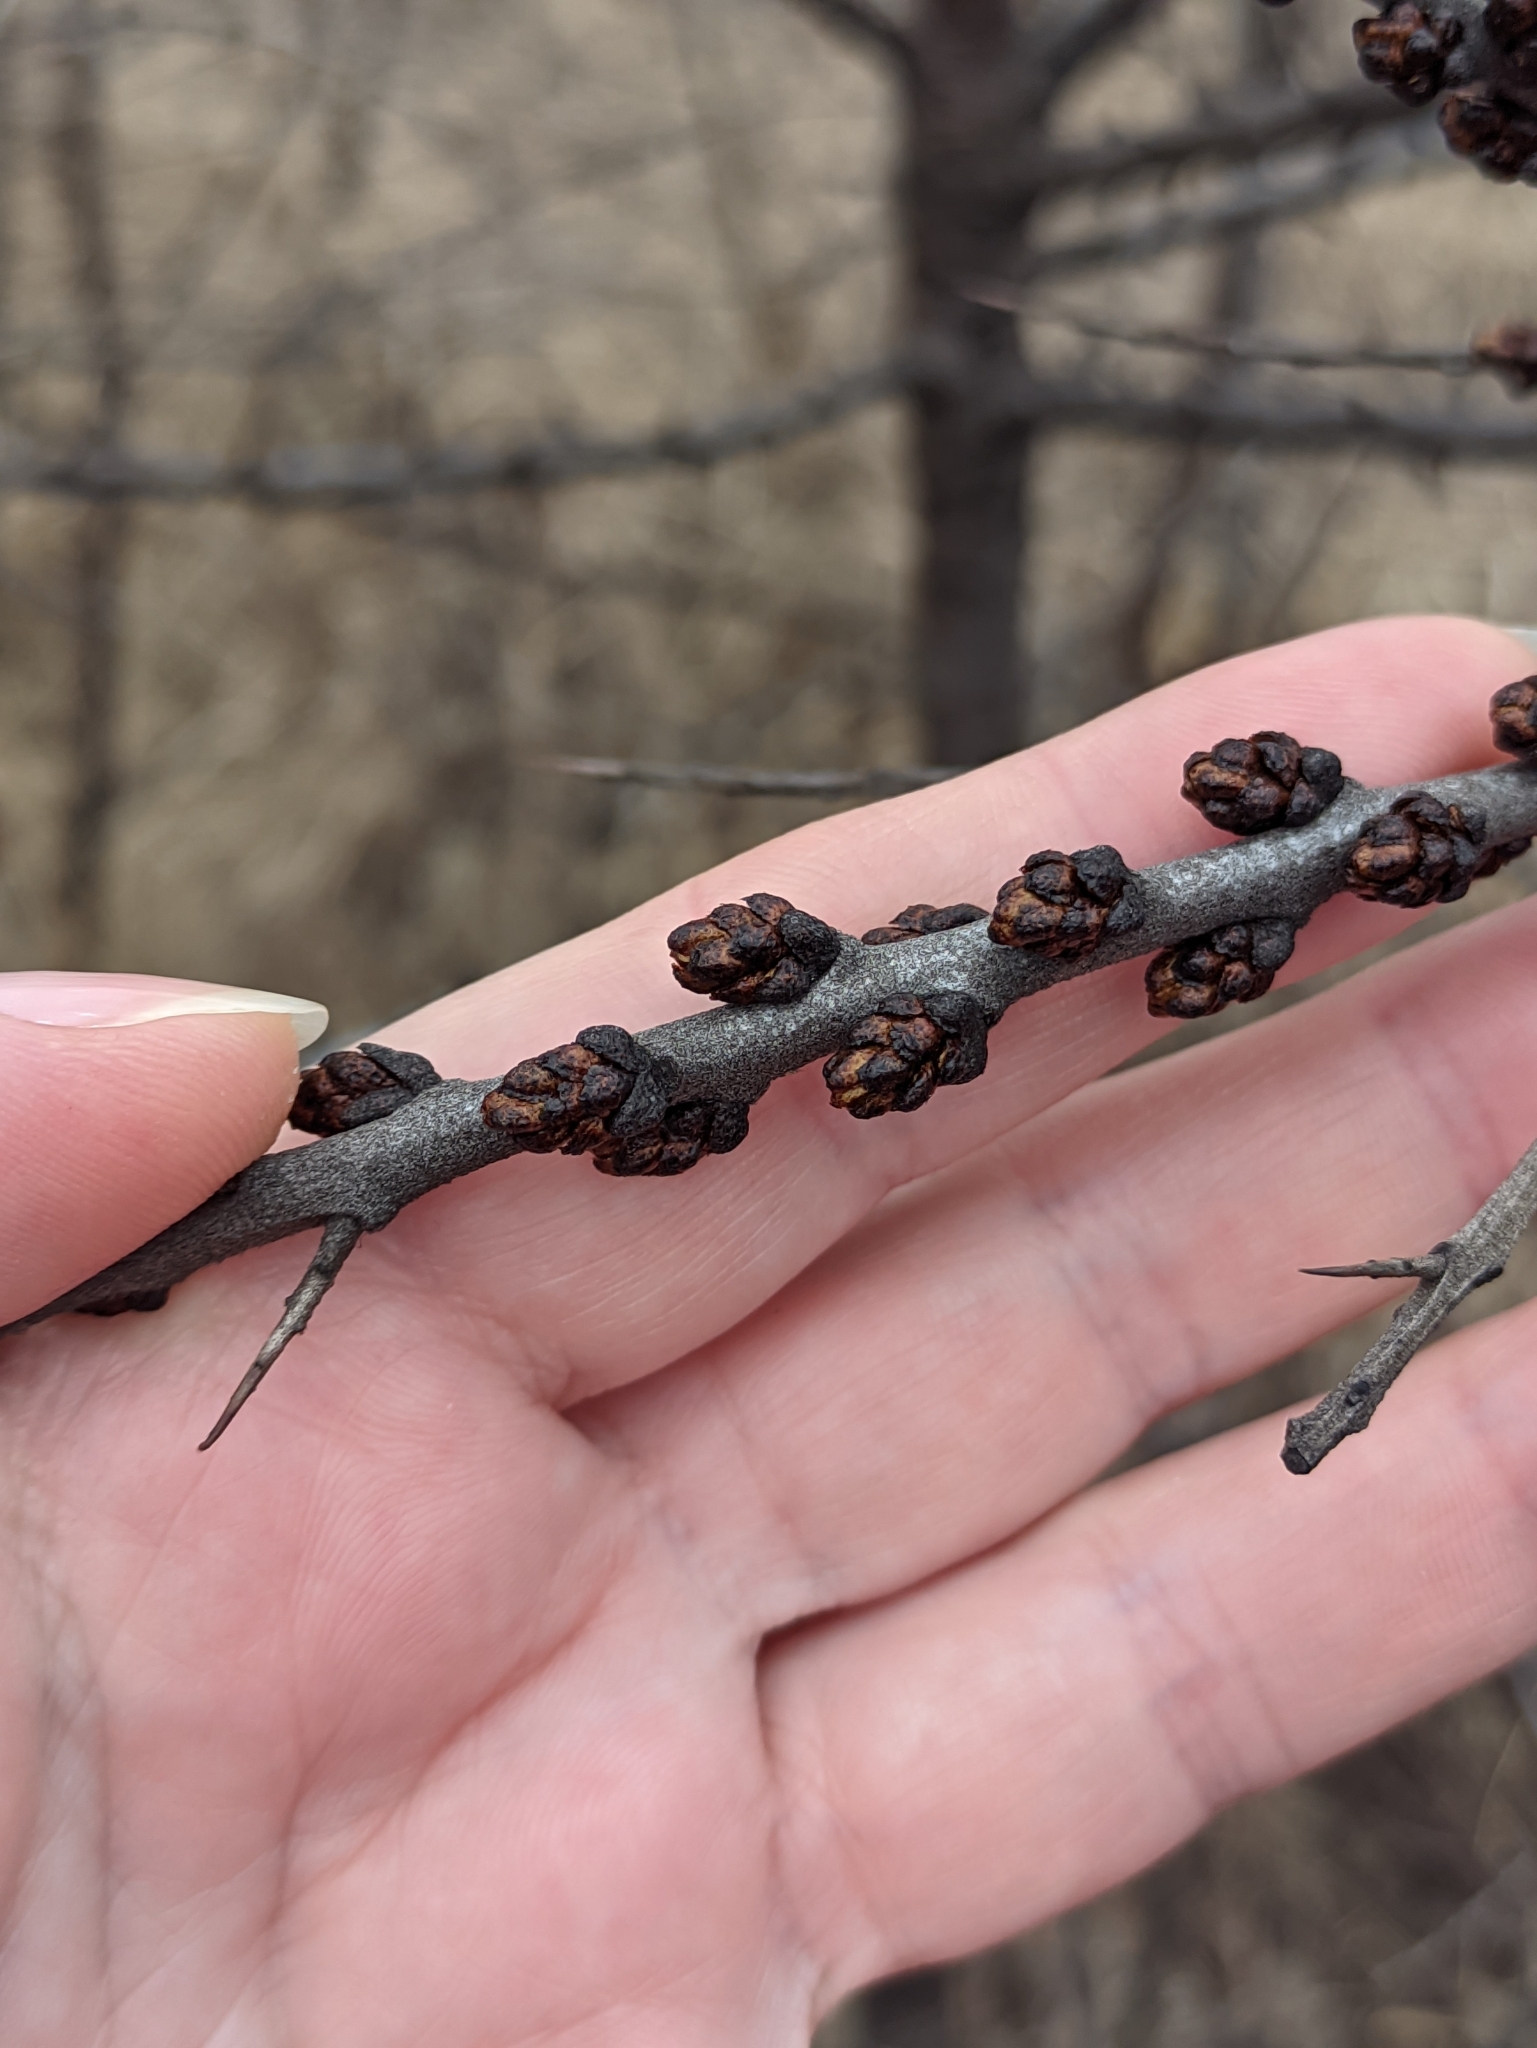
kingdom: Plantae
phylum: Tracheophyta
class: Magnoliopsida
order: Rosales
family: Elaeagnaceae
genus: Hippophae
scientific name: Hippophae rhamnoides
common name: Sea-buckthorn
